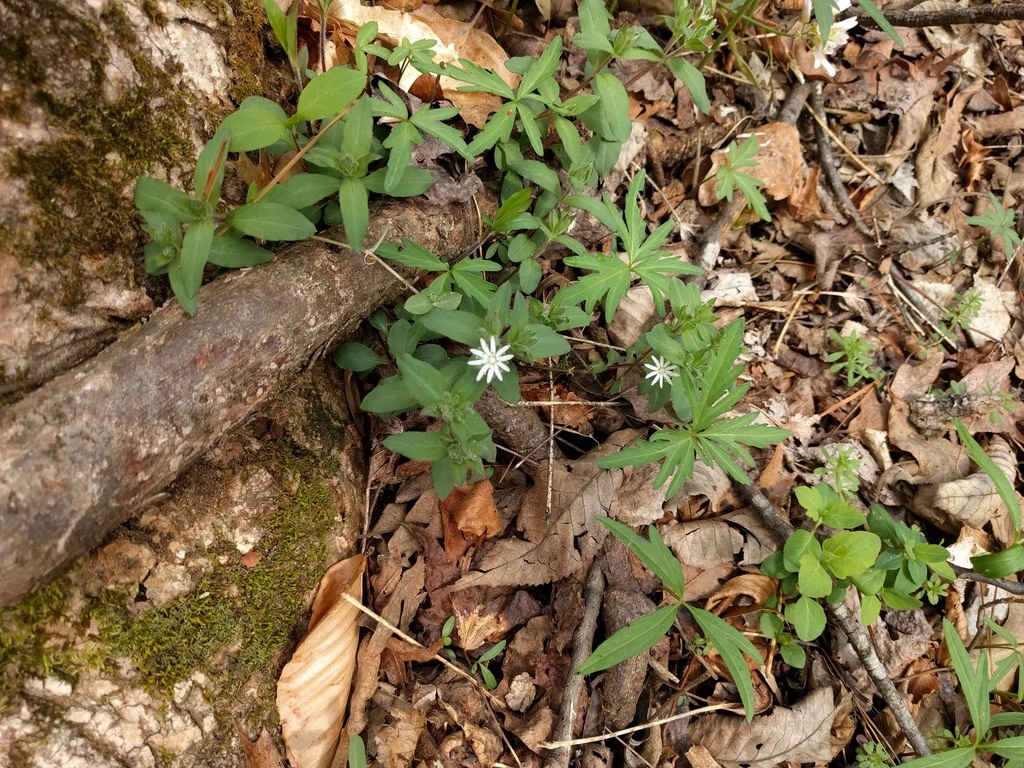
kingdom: Plantae
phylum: Tracheophyta
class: Magnoliopsida
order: Caryophyllales
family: Caryophyllaceae
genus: Stellaria
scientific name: Stellaria pubera
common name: Star chickweed
